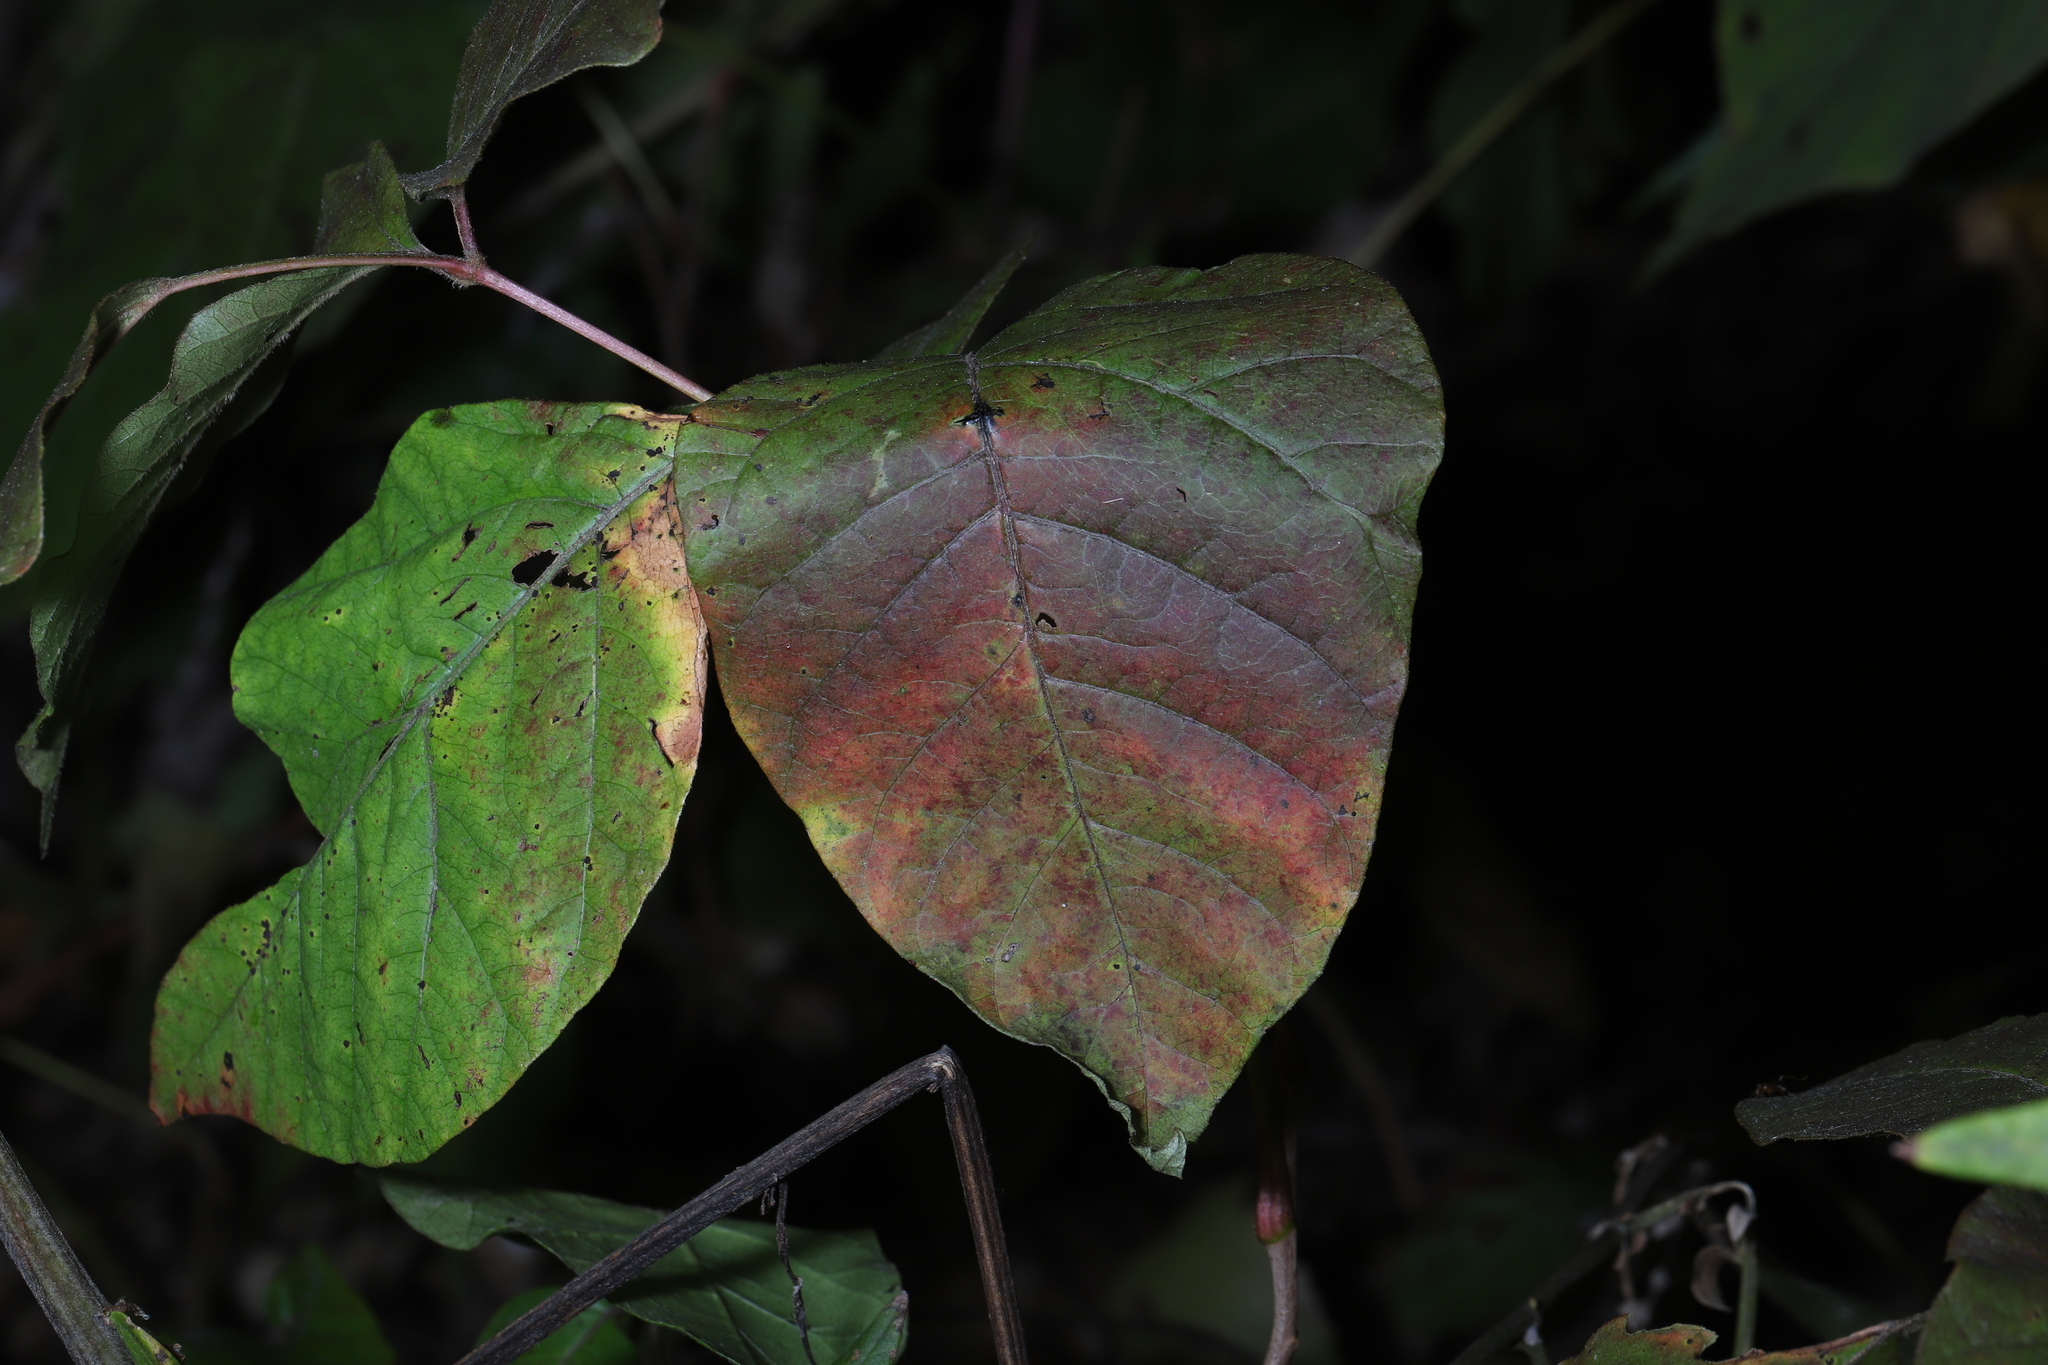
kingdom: Plantae
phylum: Tracheophyta
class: Magnoliopsida
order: Sapindales
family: Anacardiaceae
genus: Toxicodendron
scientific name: Toxicodendron radicans
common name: Poison ivy
